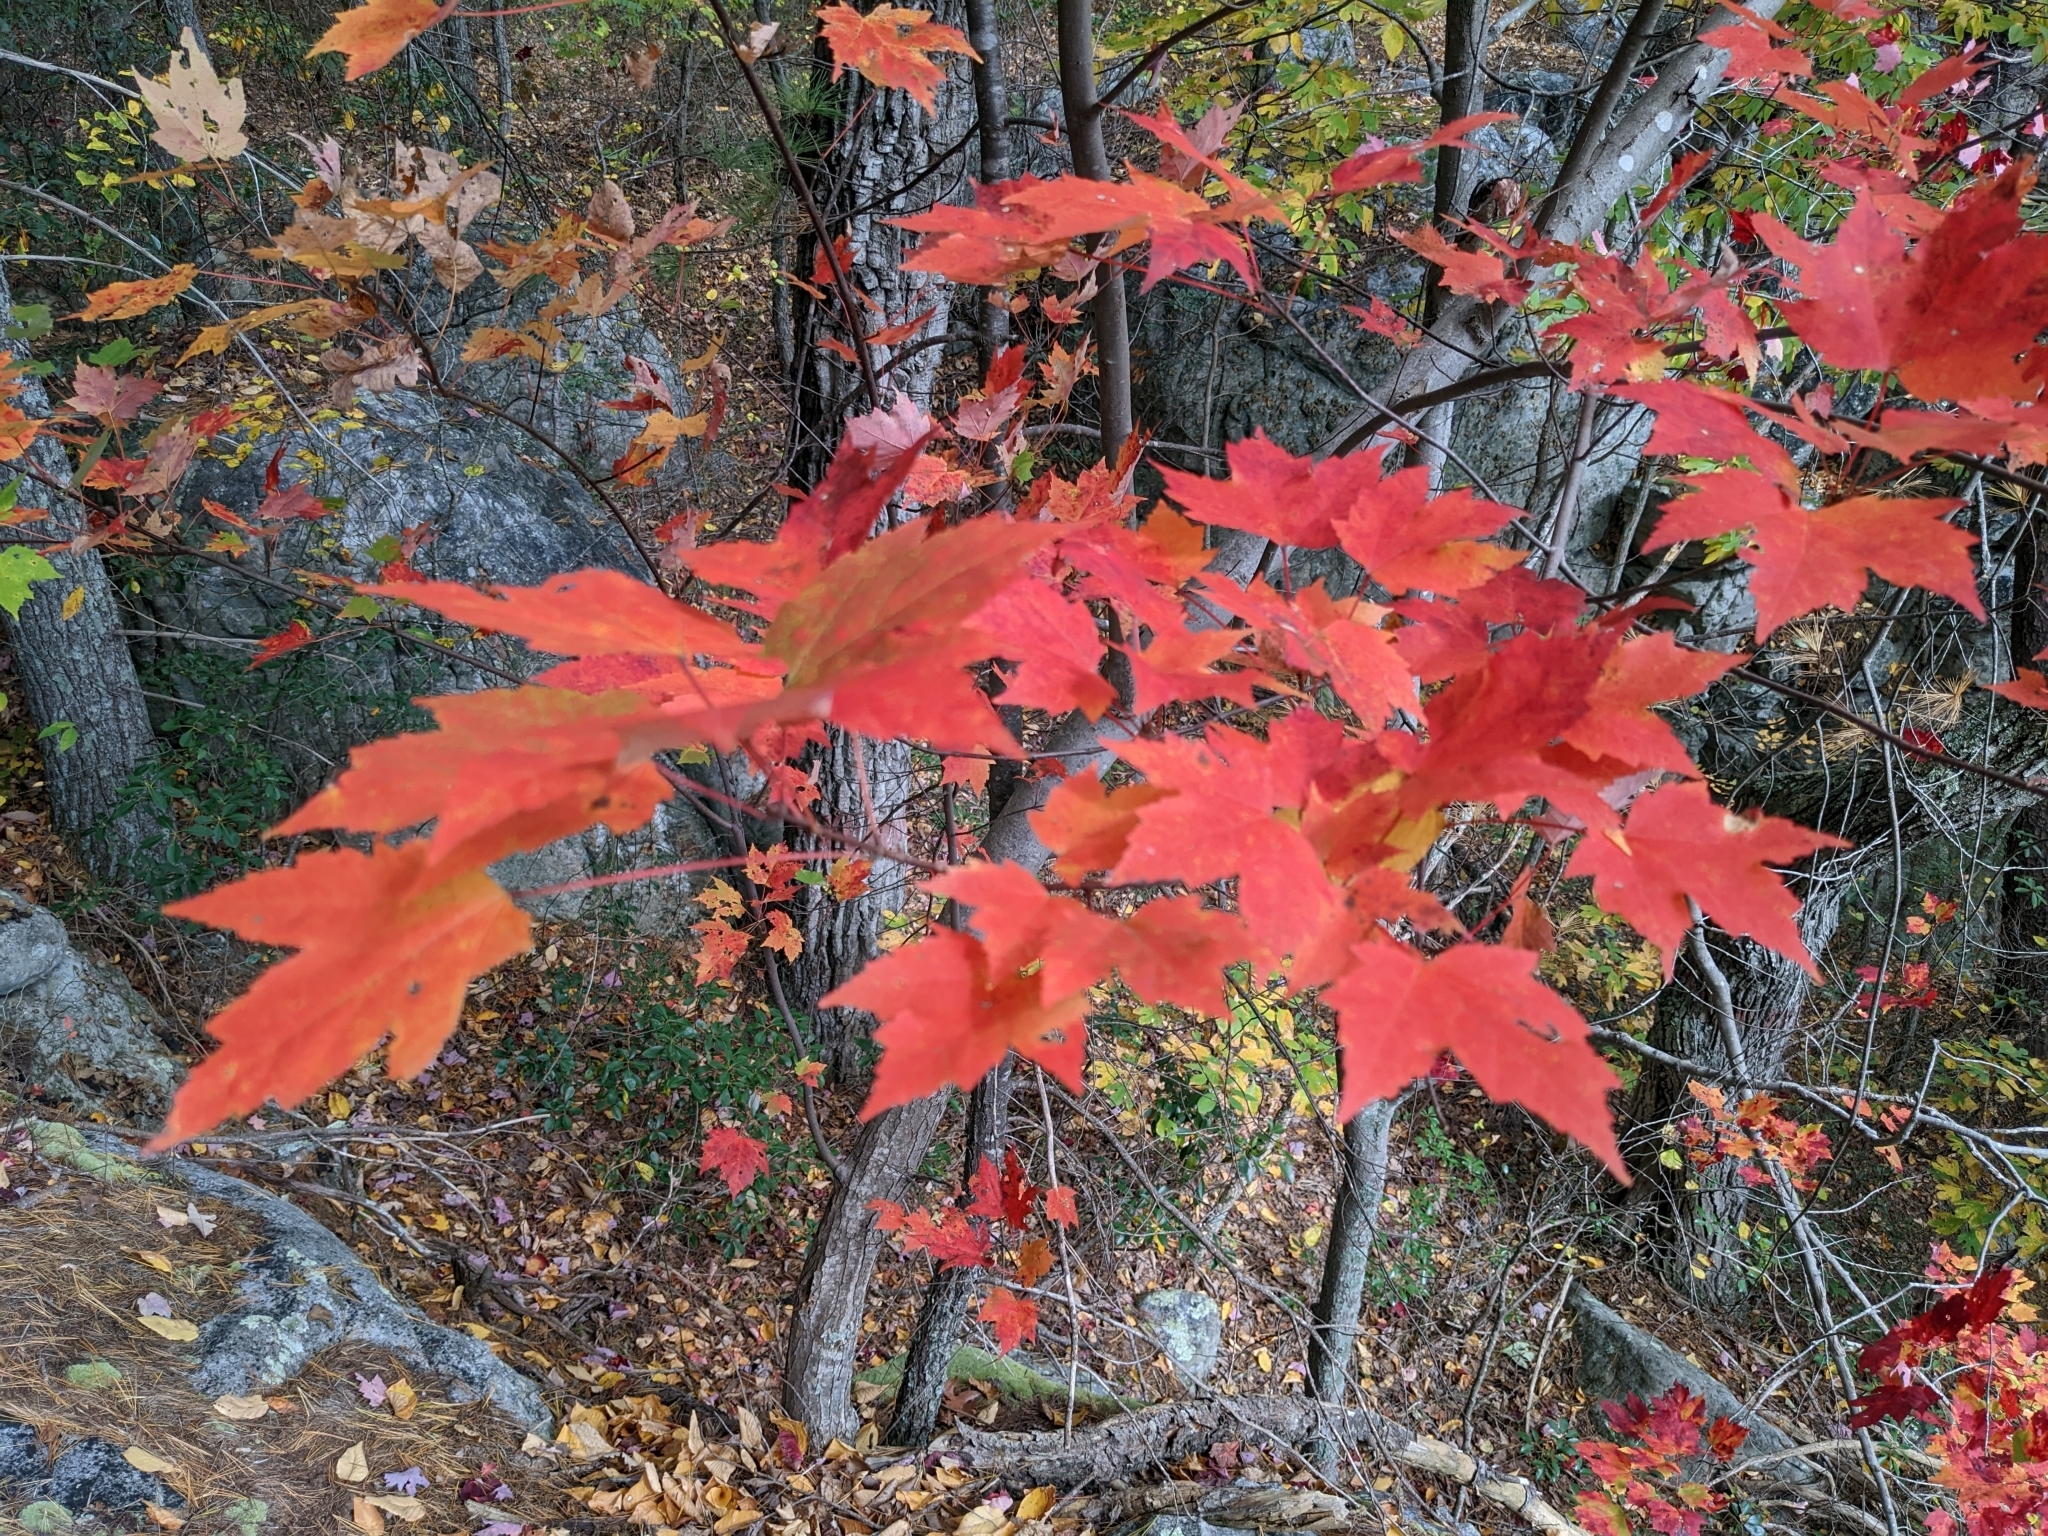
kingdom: Plantae
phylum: Tracheophyta
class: Magnoliopsida
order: Sapindales
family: Sapindaceae
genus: Acer
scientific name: Acer rubrum
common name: Red maple
